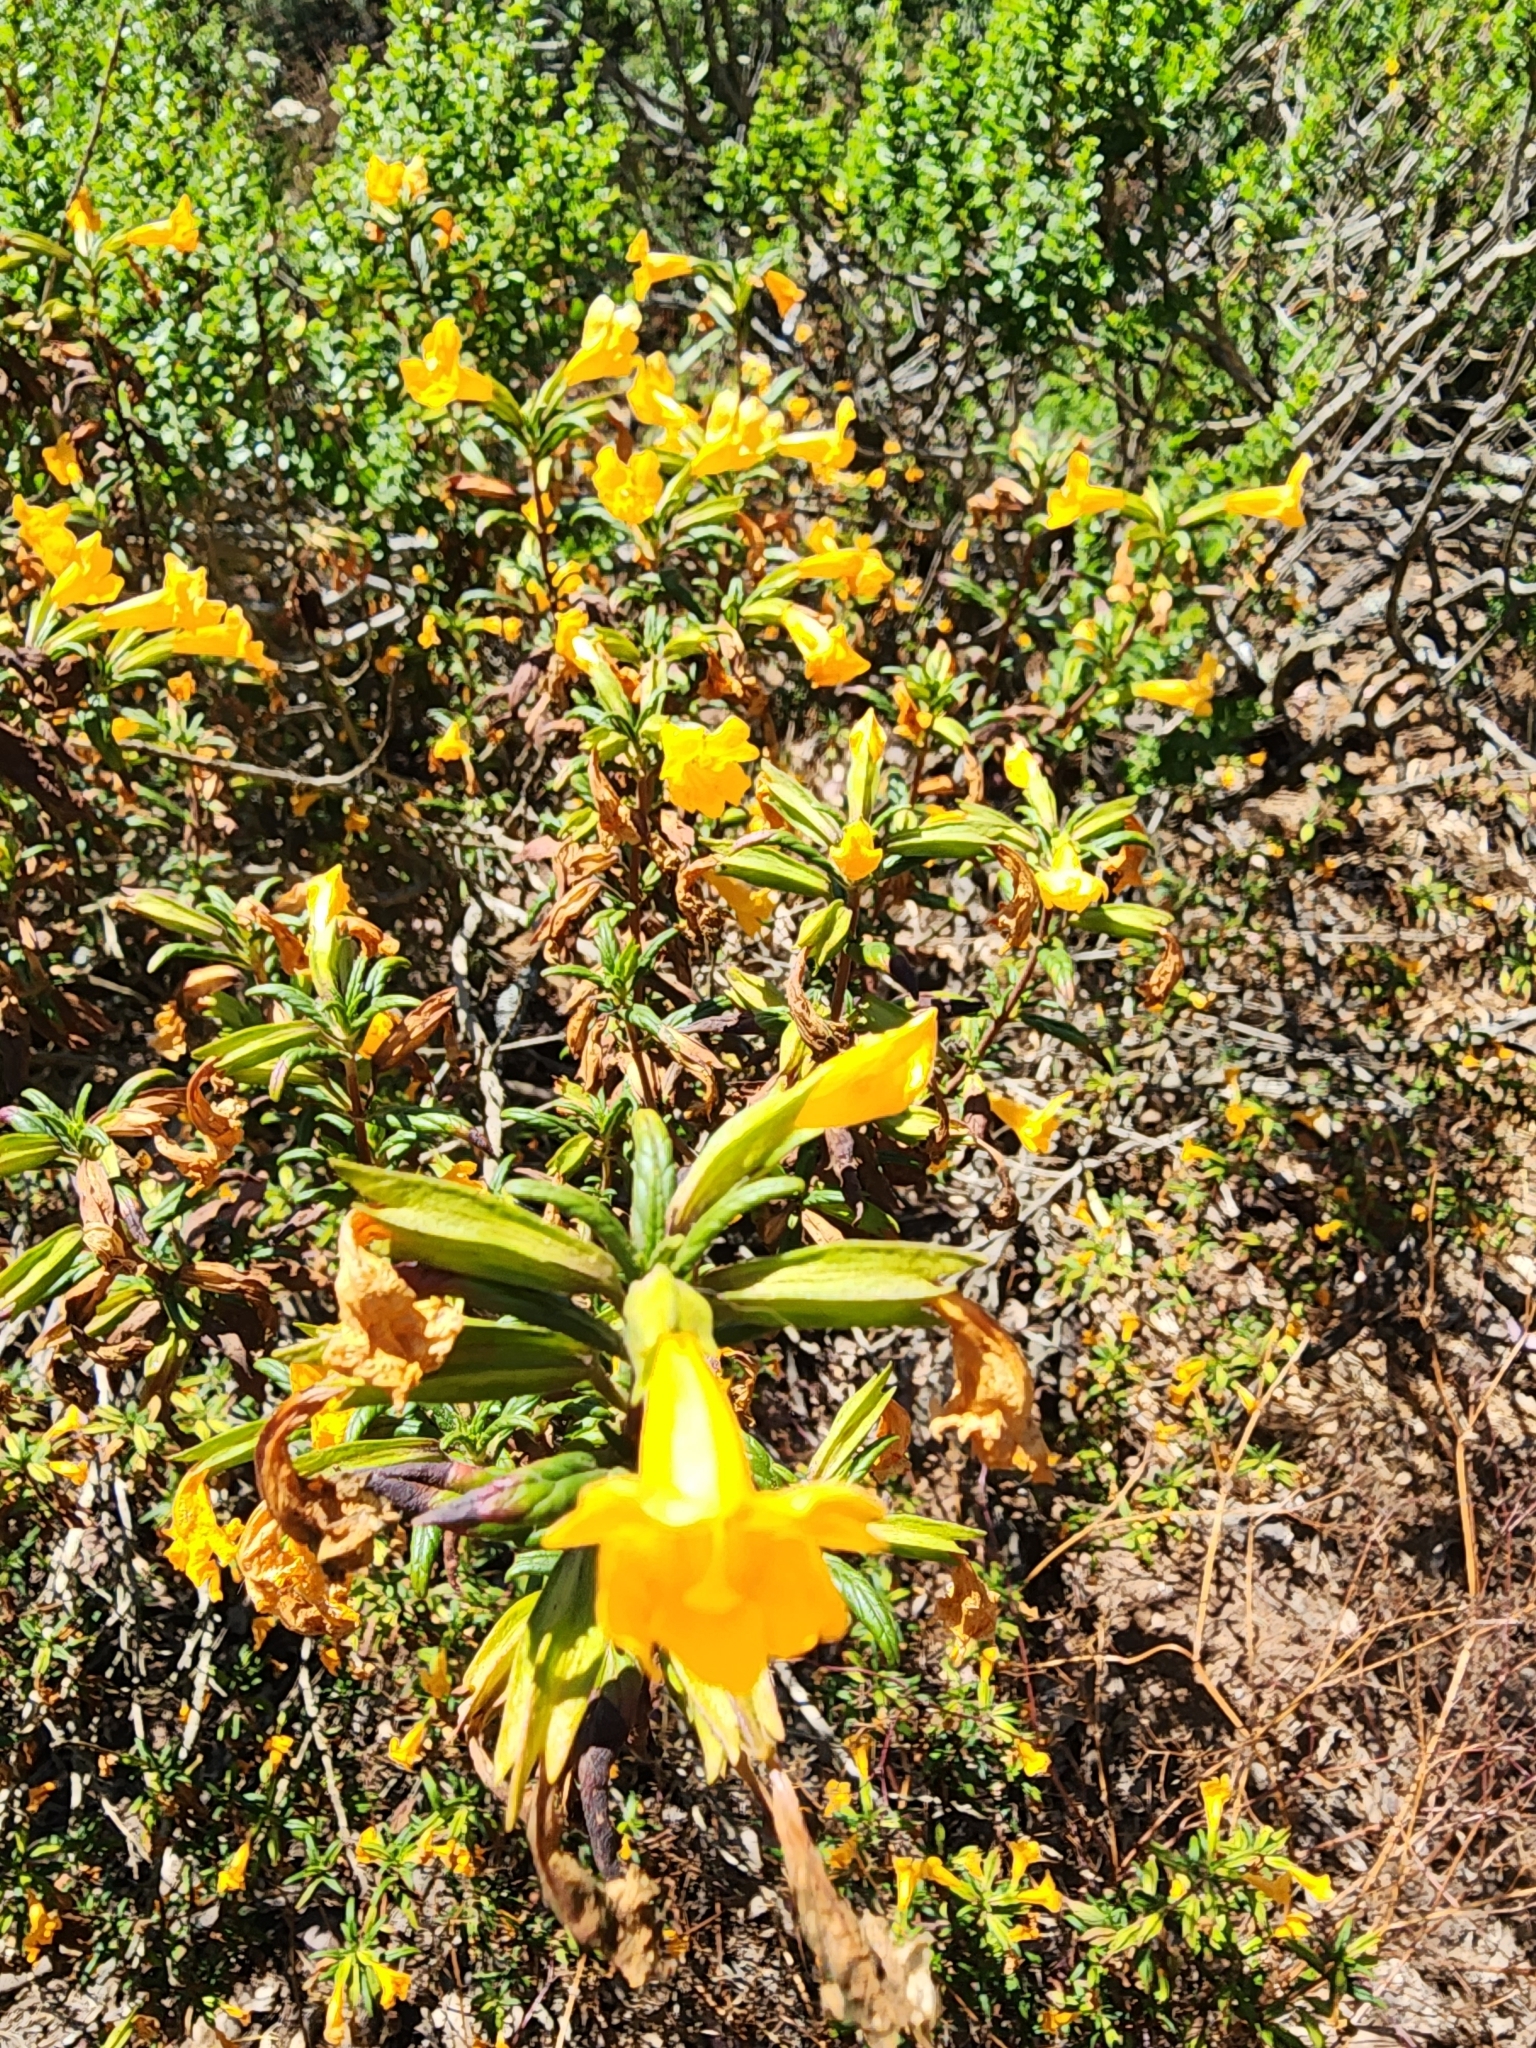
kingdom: Plantae
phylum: Tracheophyta
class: Magnoliopsida
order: Lamiales
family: Phrymaceae
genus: Diplacus
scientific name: Diplacus aurantiacus
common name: Bush monkey-flower
